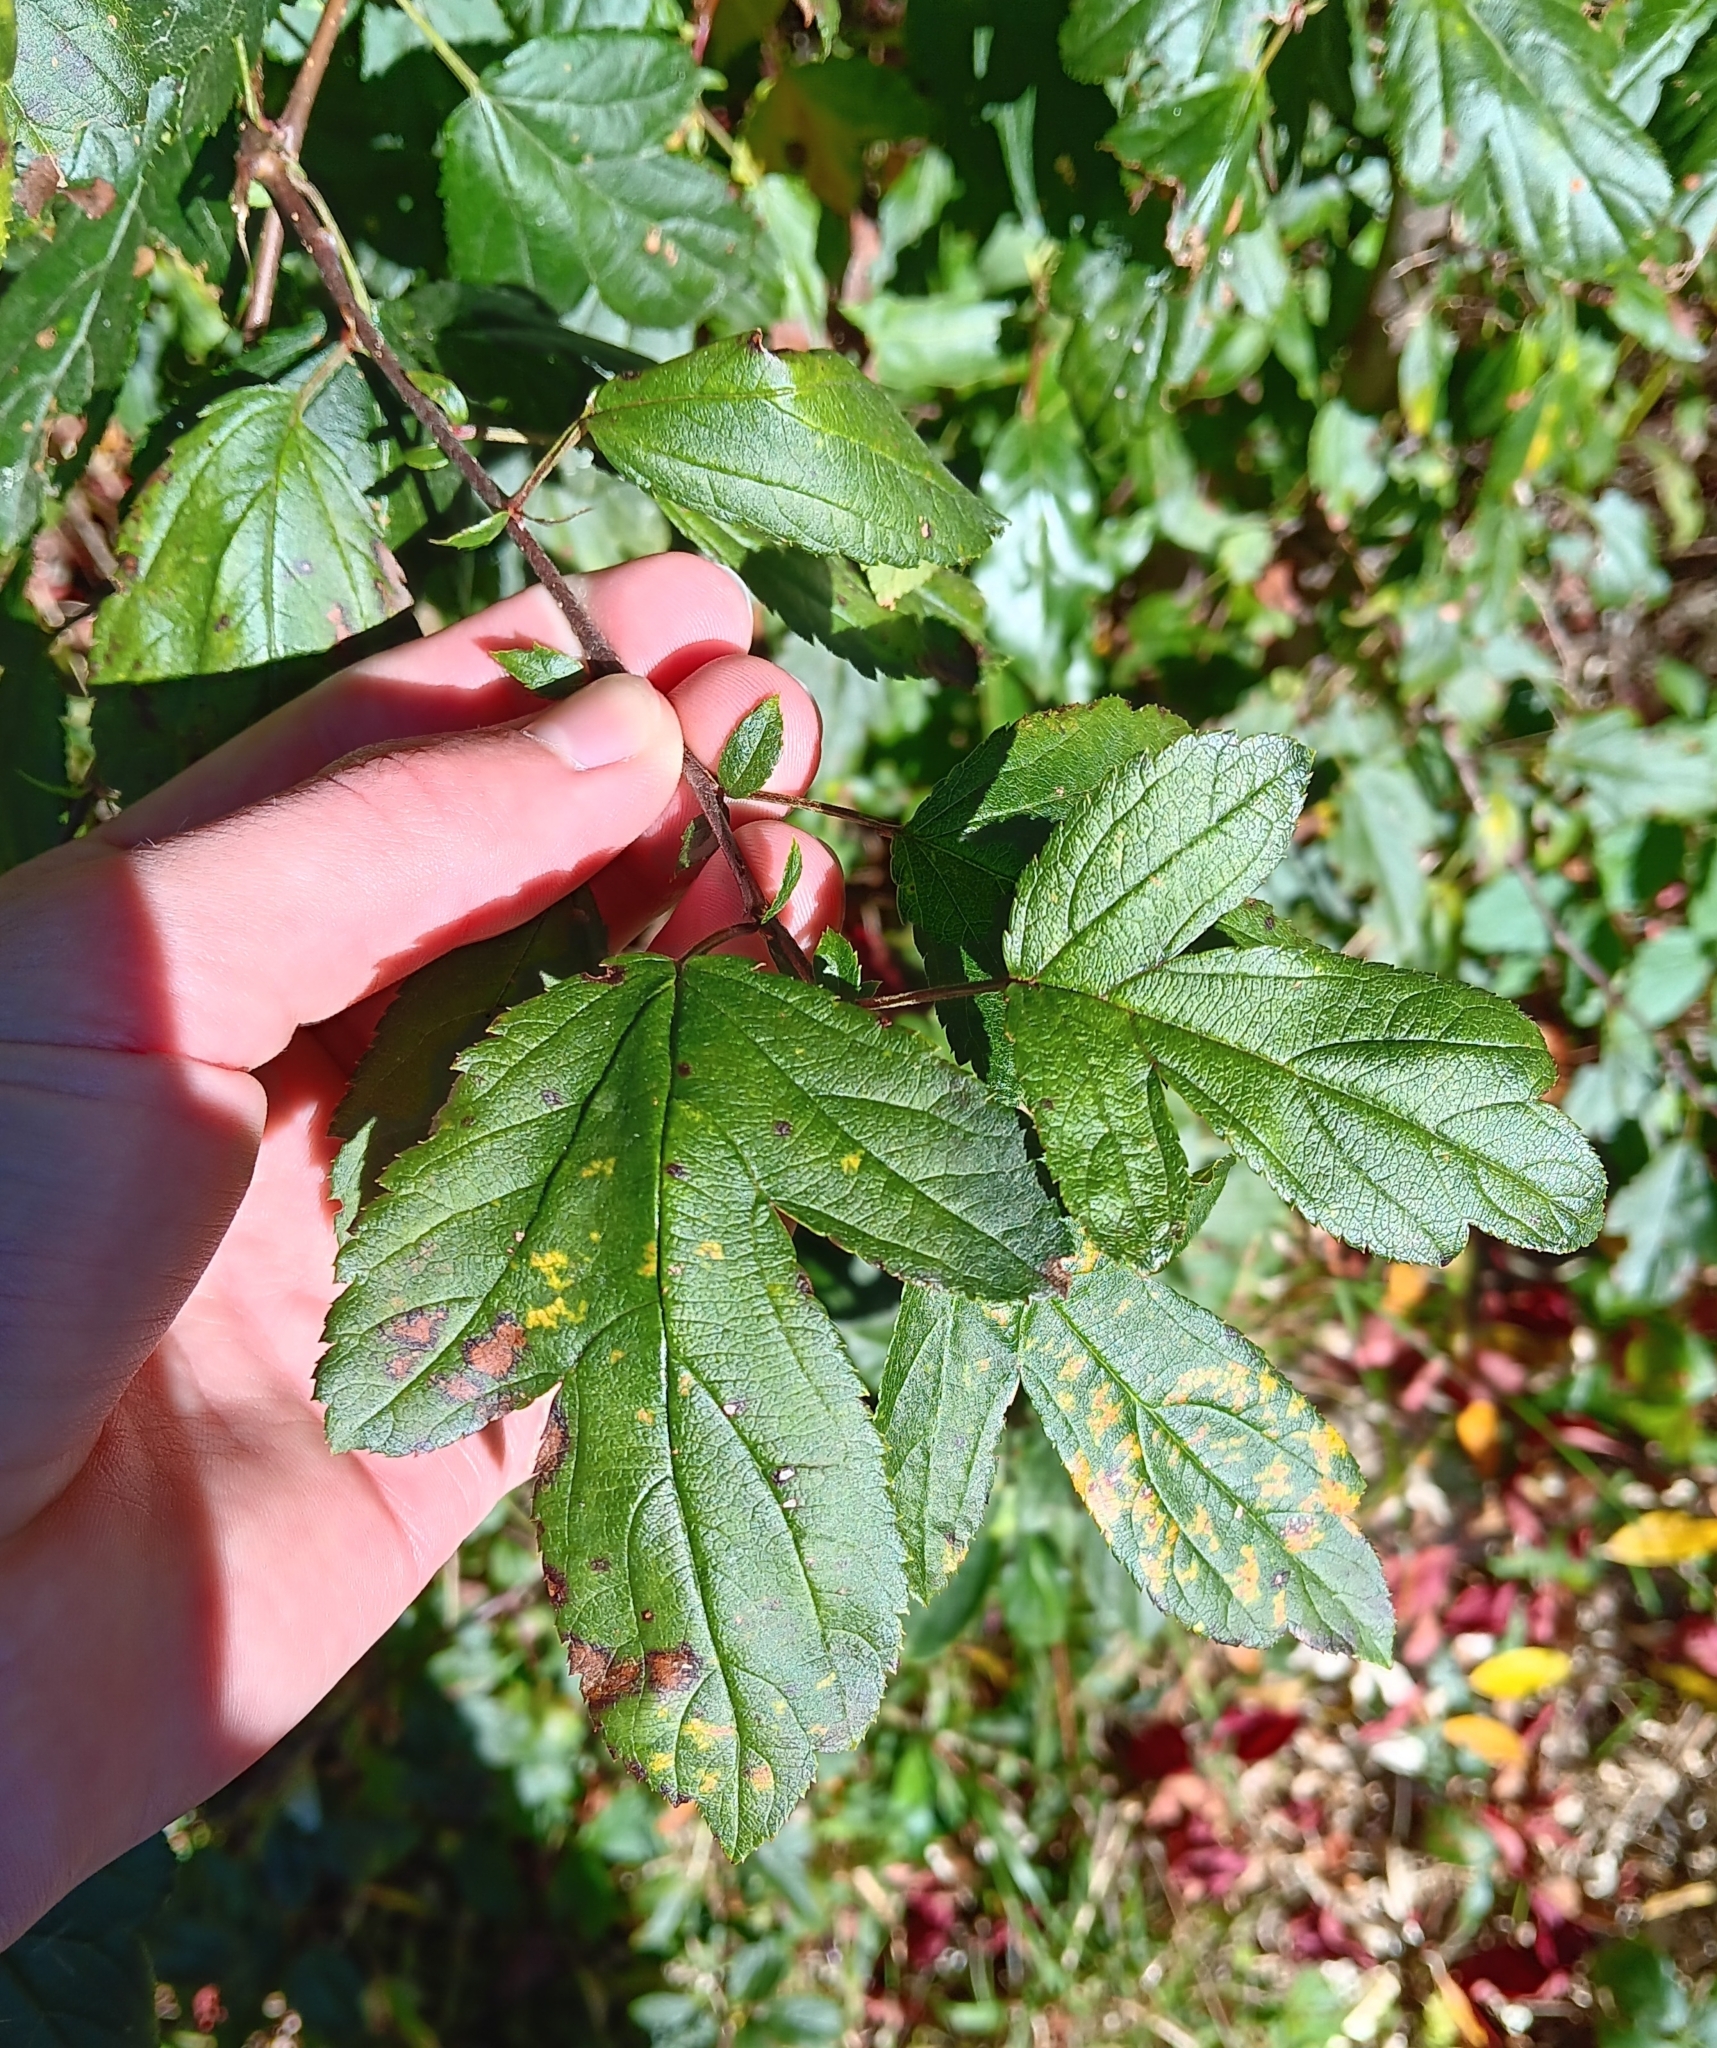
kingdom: Plantae
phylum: Tracheophyta
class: Magnoliopsida
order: Rosales
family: Rosaceae
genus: Malus
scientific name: Malus toringo
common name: Japanese crabapple
